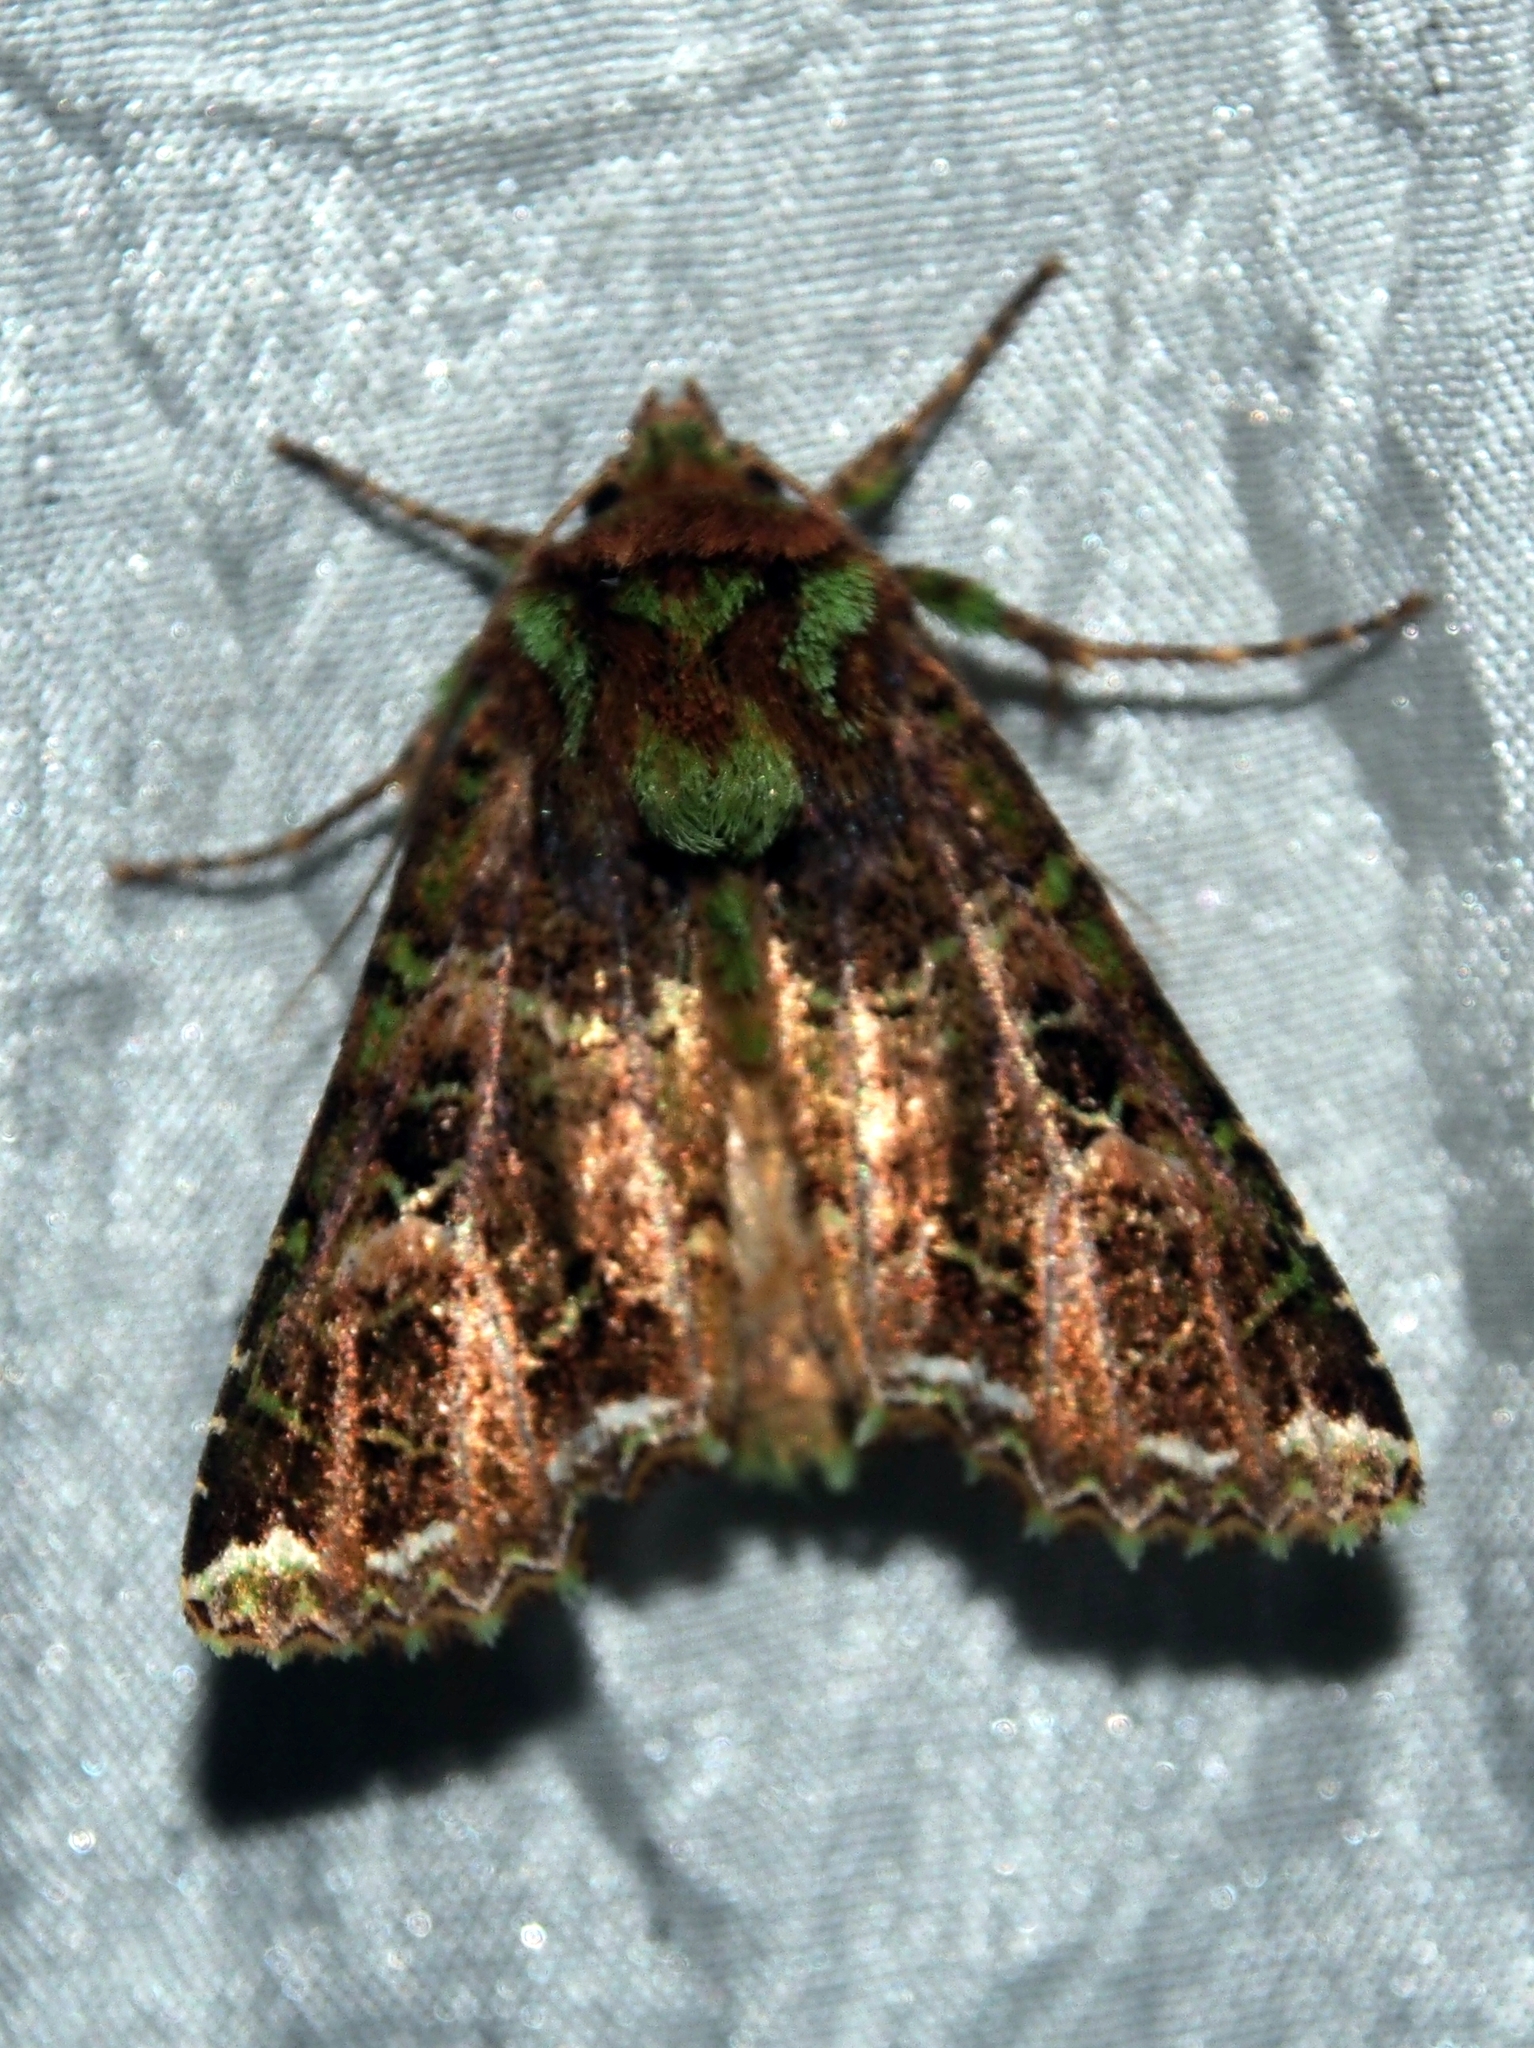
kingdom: Animalia
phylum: Arthropoda
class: Insecta
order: Lepidoptera
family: Noctuidae
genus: Heterochroma
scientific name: Heterochroma
